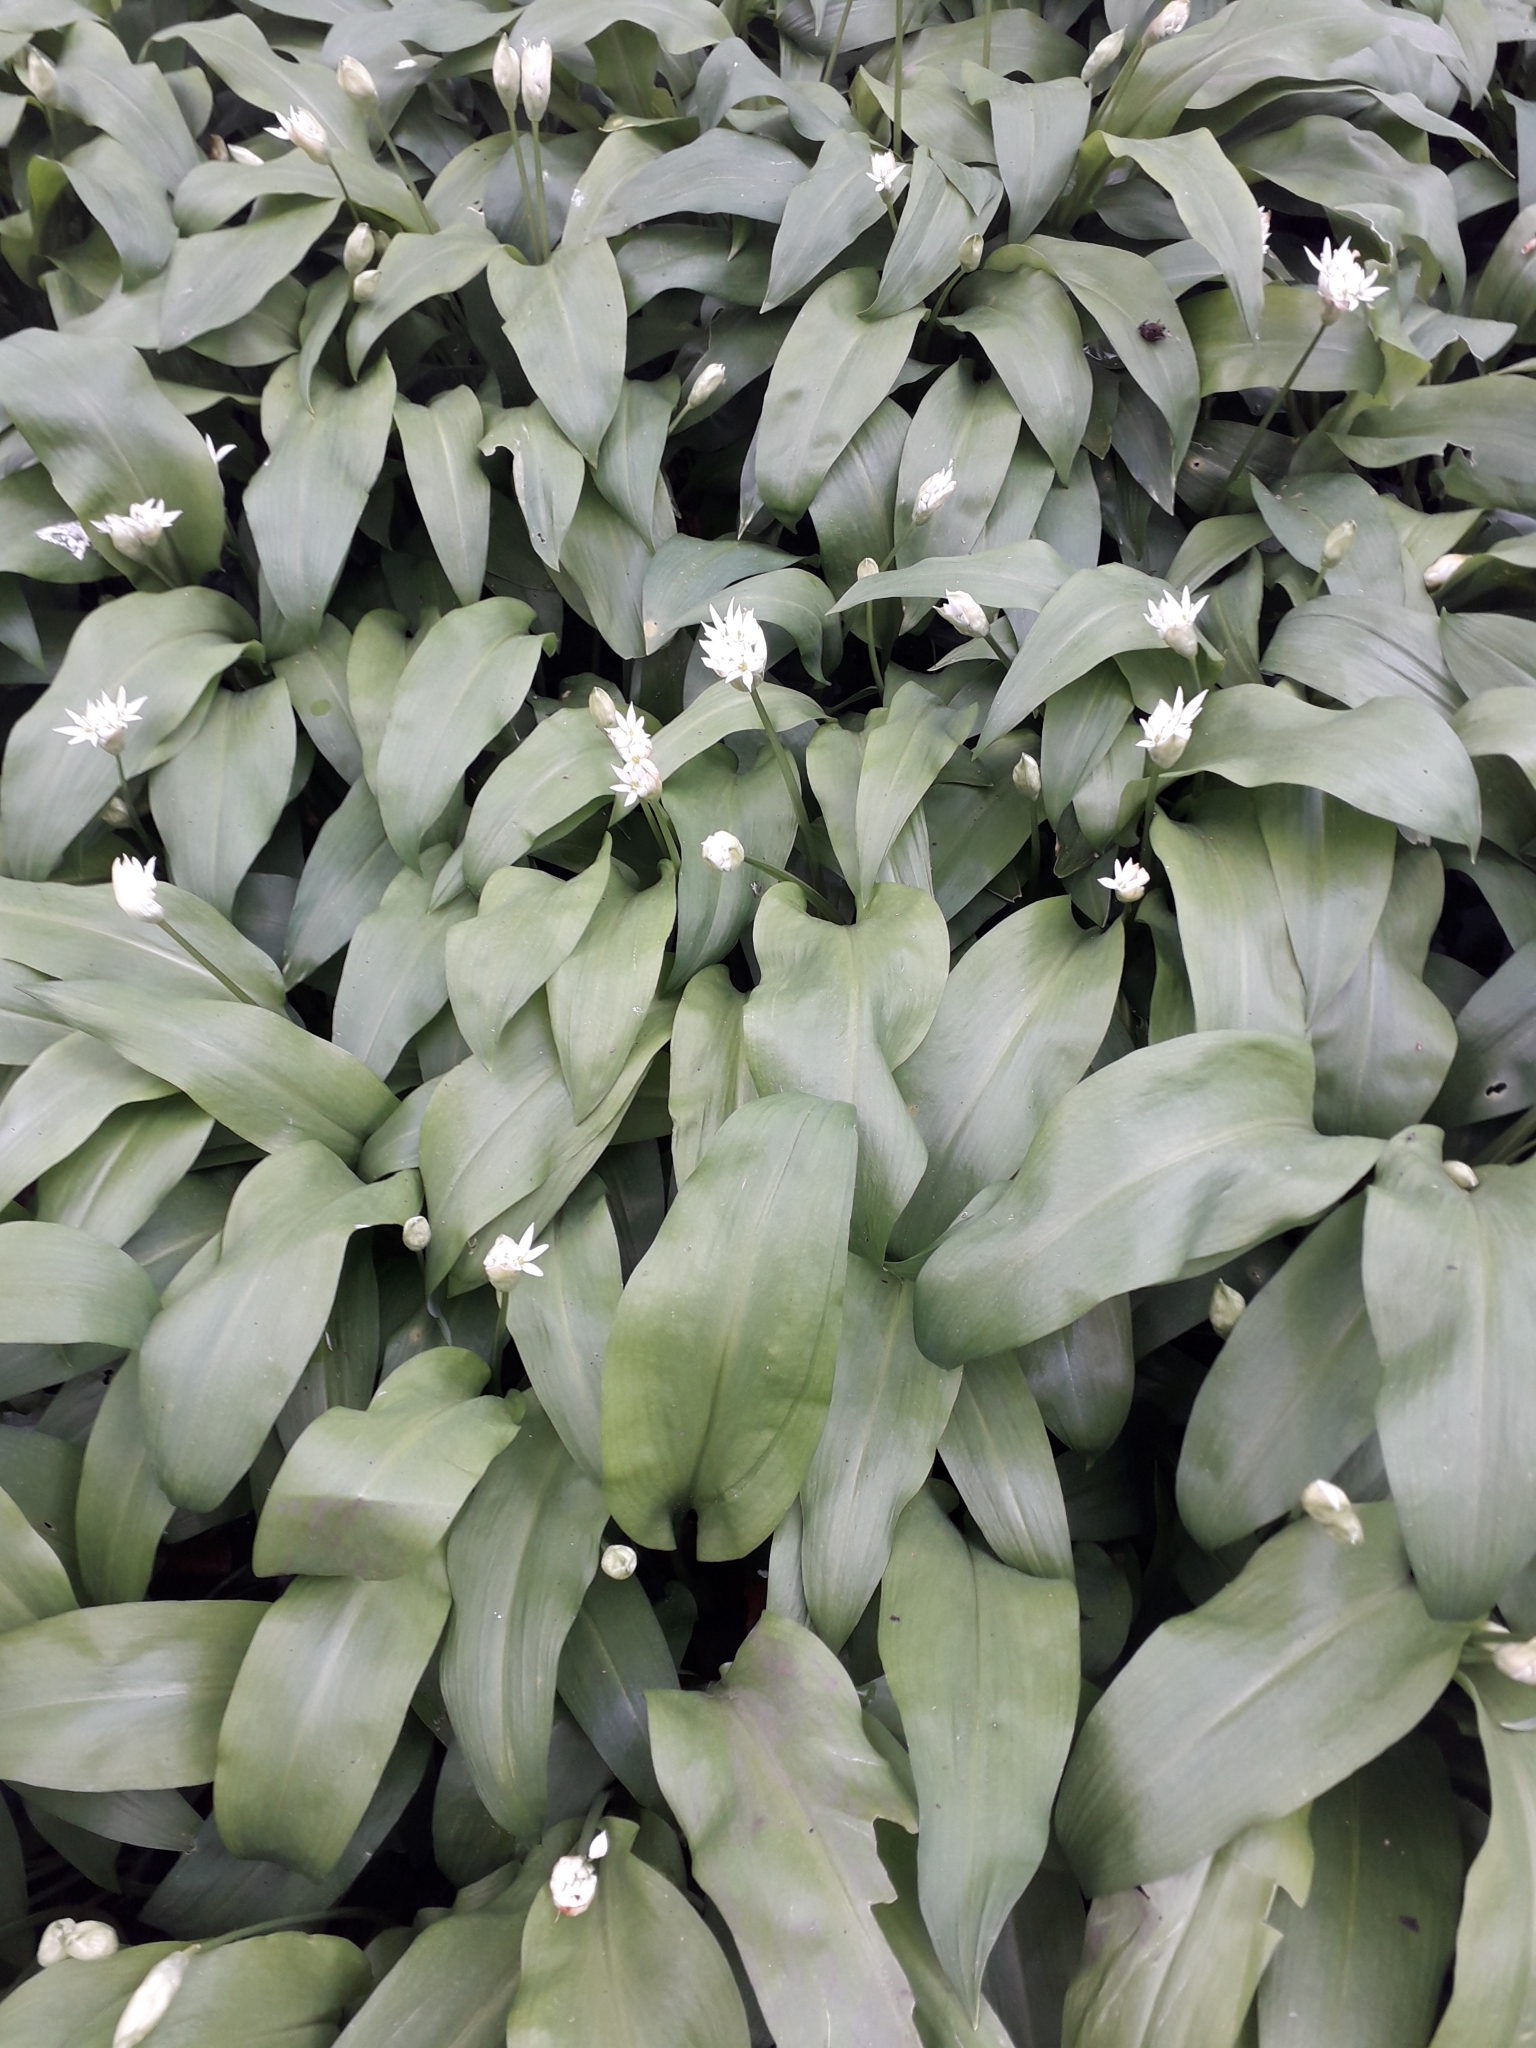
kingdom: Plantae
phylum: Tracheophyta
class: Liliopsida
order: Asparagales
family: Amaryllidaceae
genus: Allium
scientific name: Allium ursinum
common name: Ramsons
